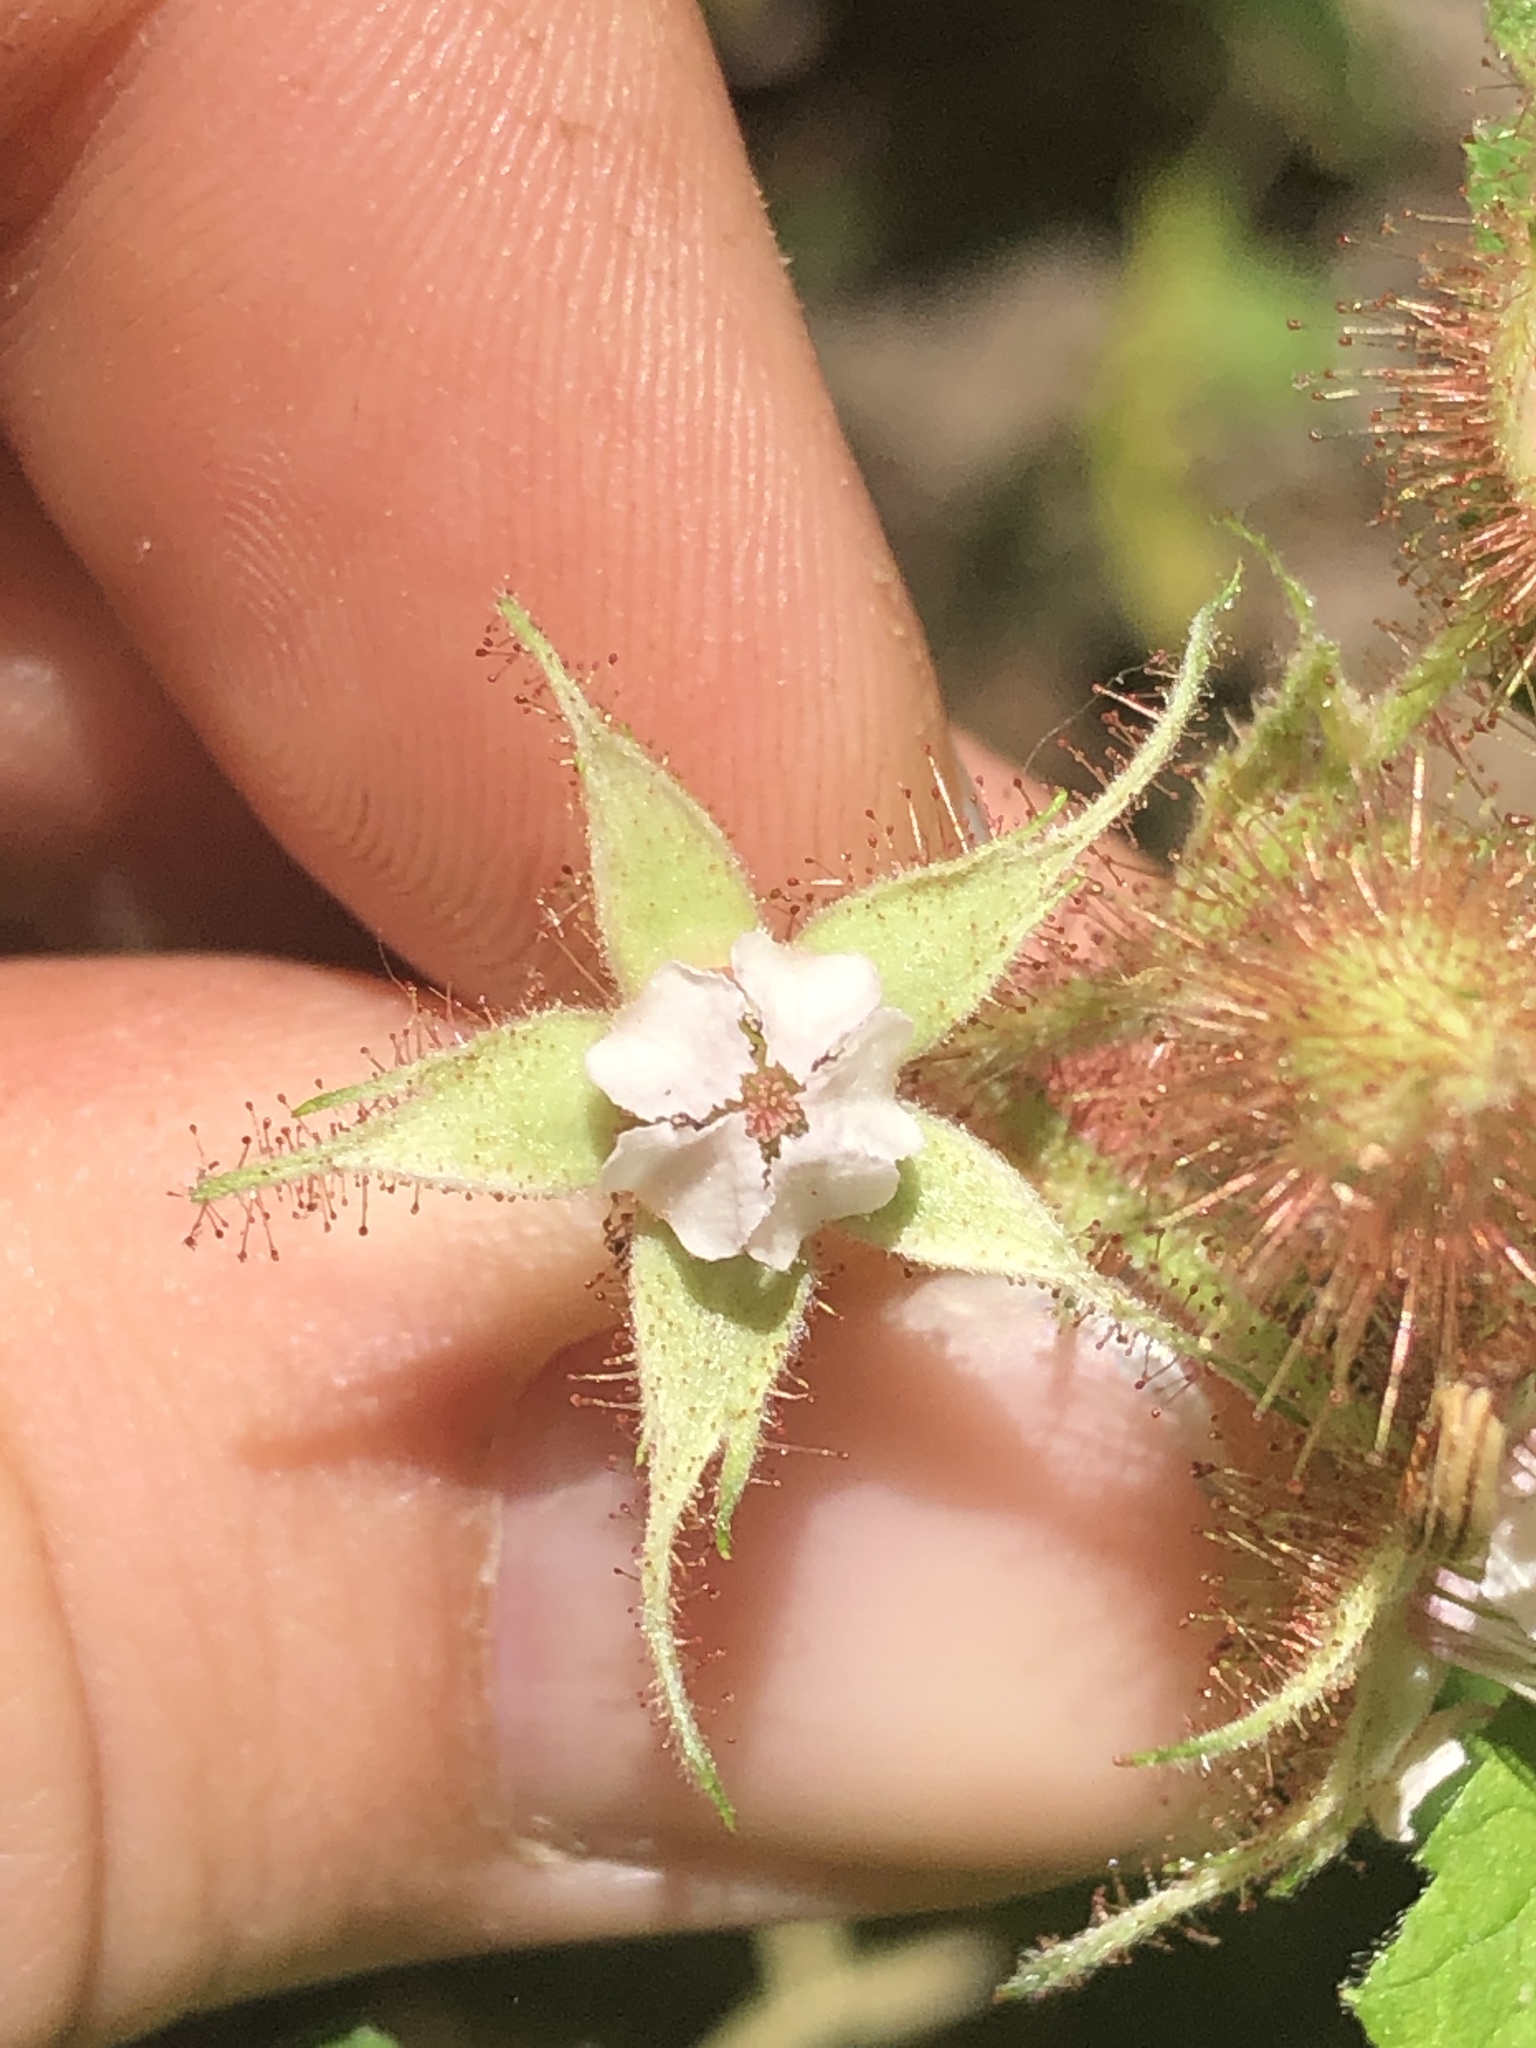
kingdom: Plantae
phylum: Tracheophyta
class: Magnoliopsida
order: Rosales
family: Rosaceae
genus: Rubus
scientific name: Rubus phoenicolasius
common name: Japanese wineberry
